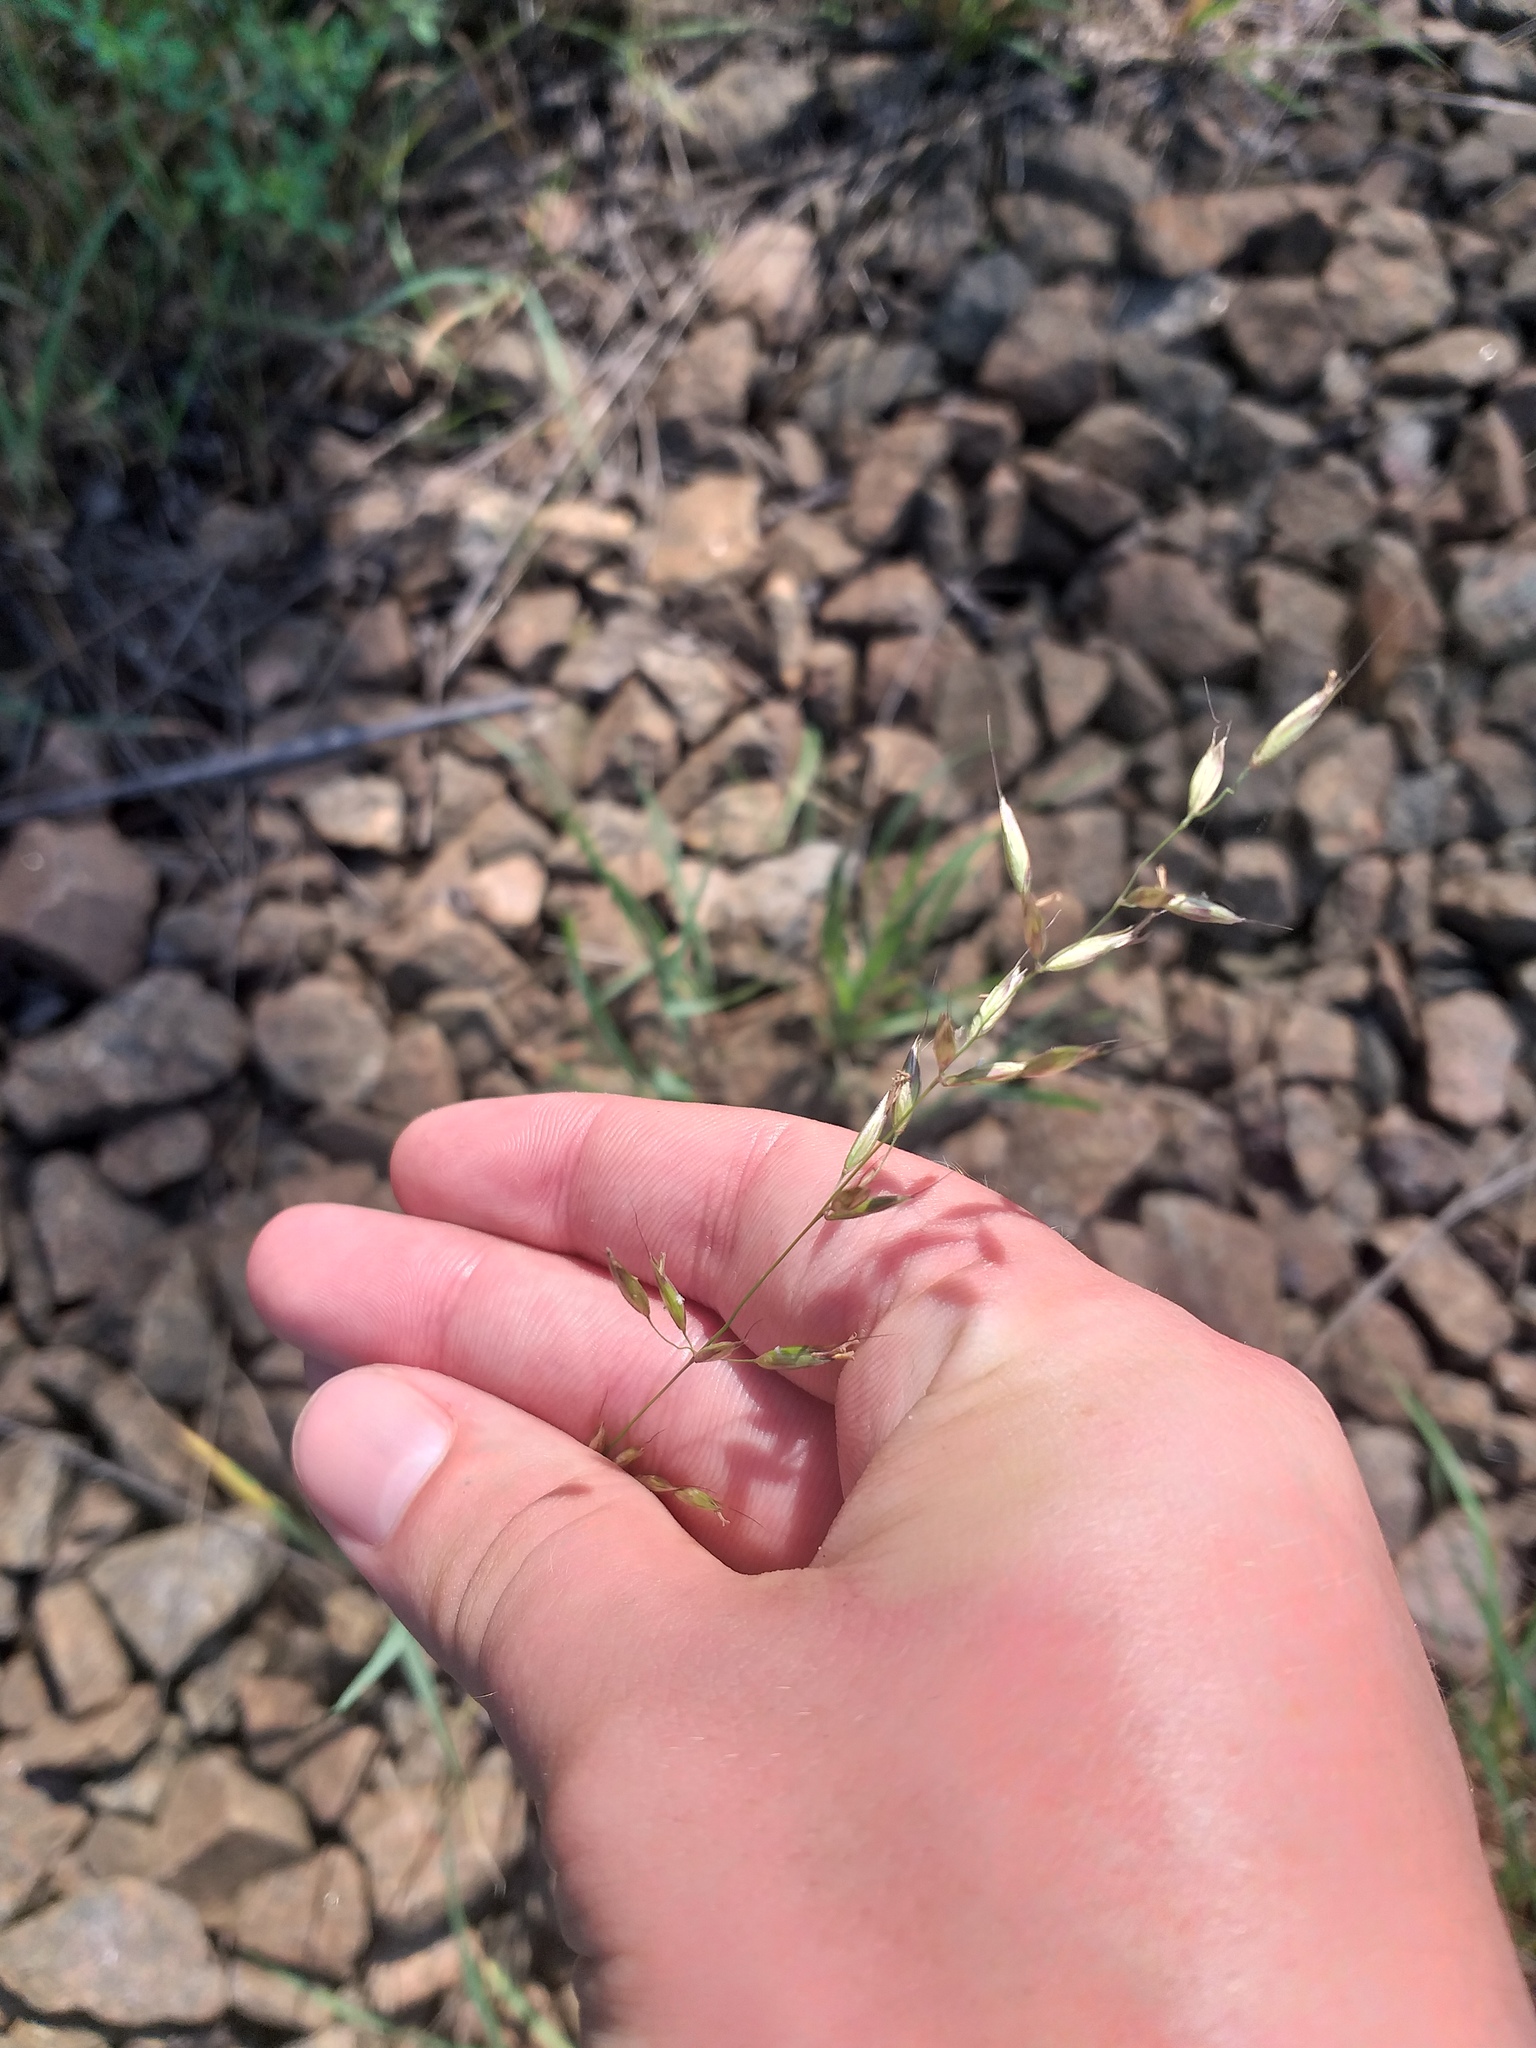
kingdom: Plantae
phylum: Tracheophyta
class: Liliopsida
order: Poales
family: Poaceae
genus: Arrhenatherum
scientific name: Arrhenatherum elatius
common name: Tall oatgrass
